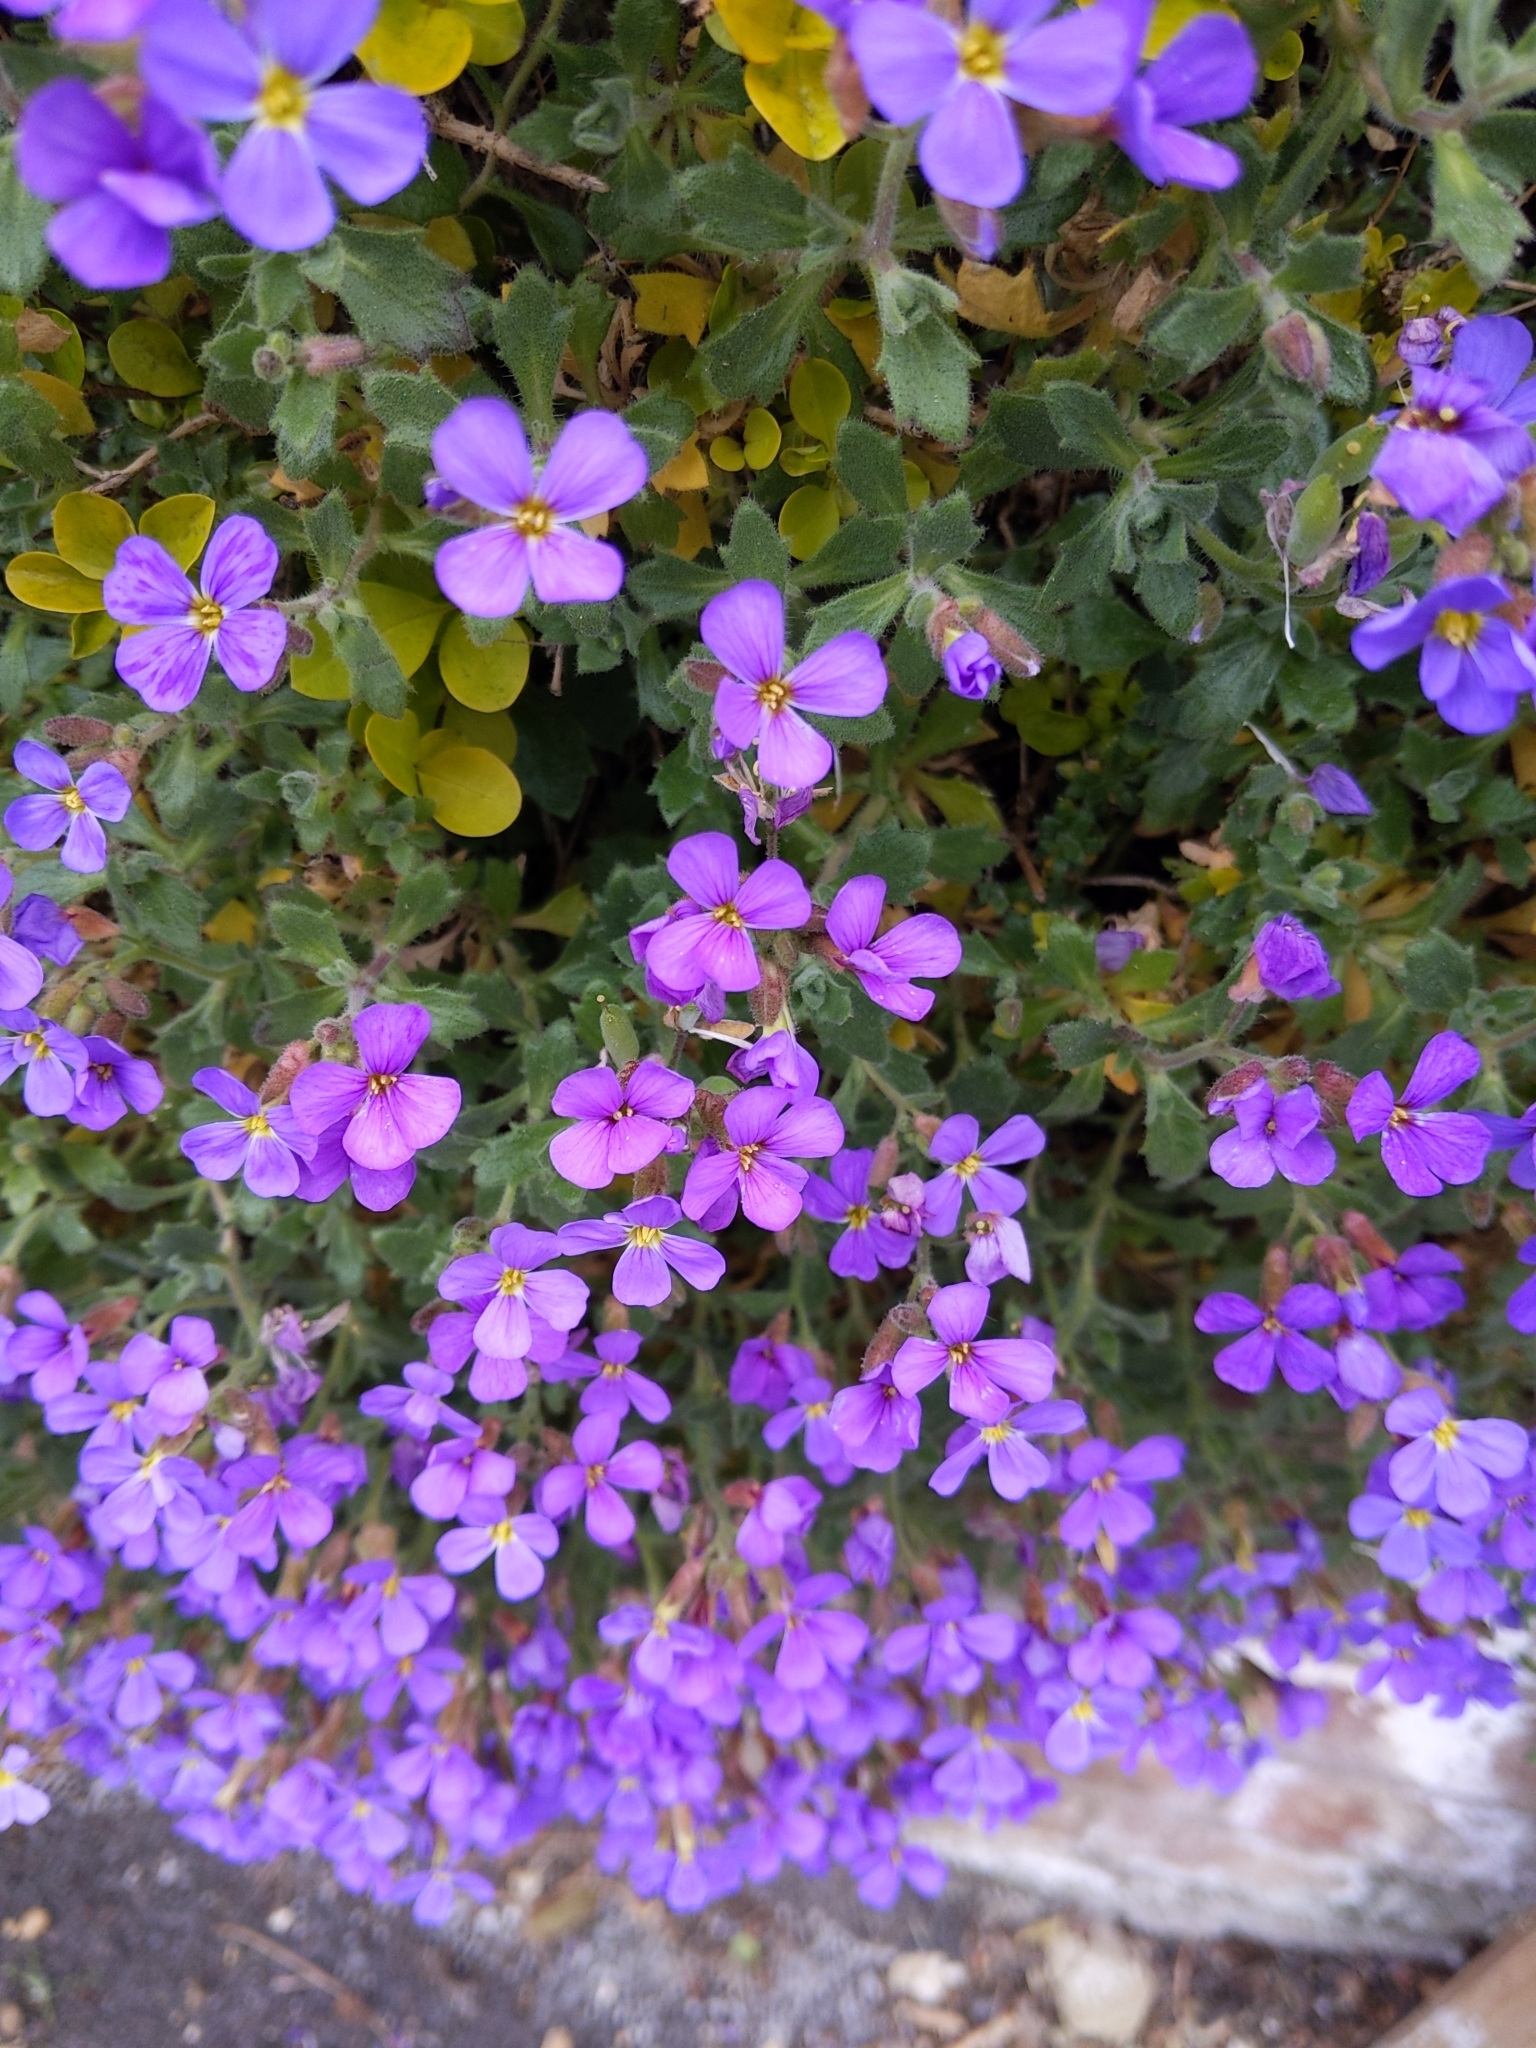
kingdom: Plantae
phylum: Tracheophyta
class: Magnoliopsida
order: Brassicales
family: Brassicaceae
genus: Aubrieta
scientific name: Aubrieta deltoidea
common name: Aubretia
